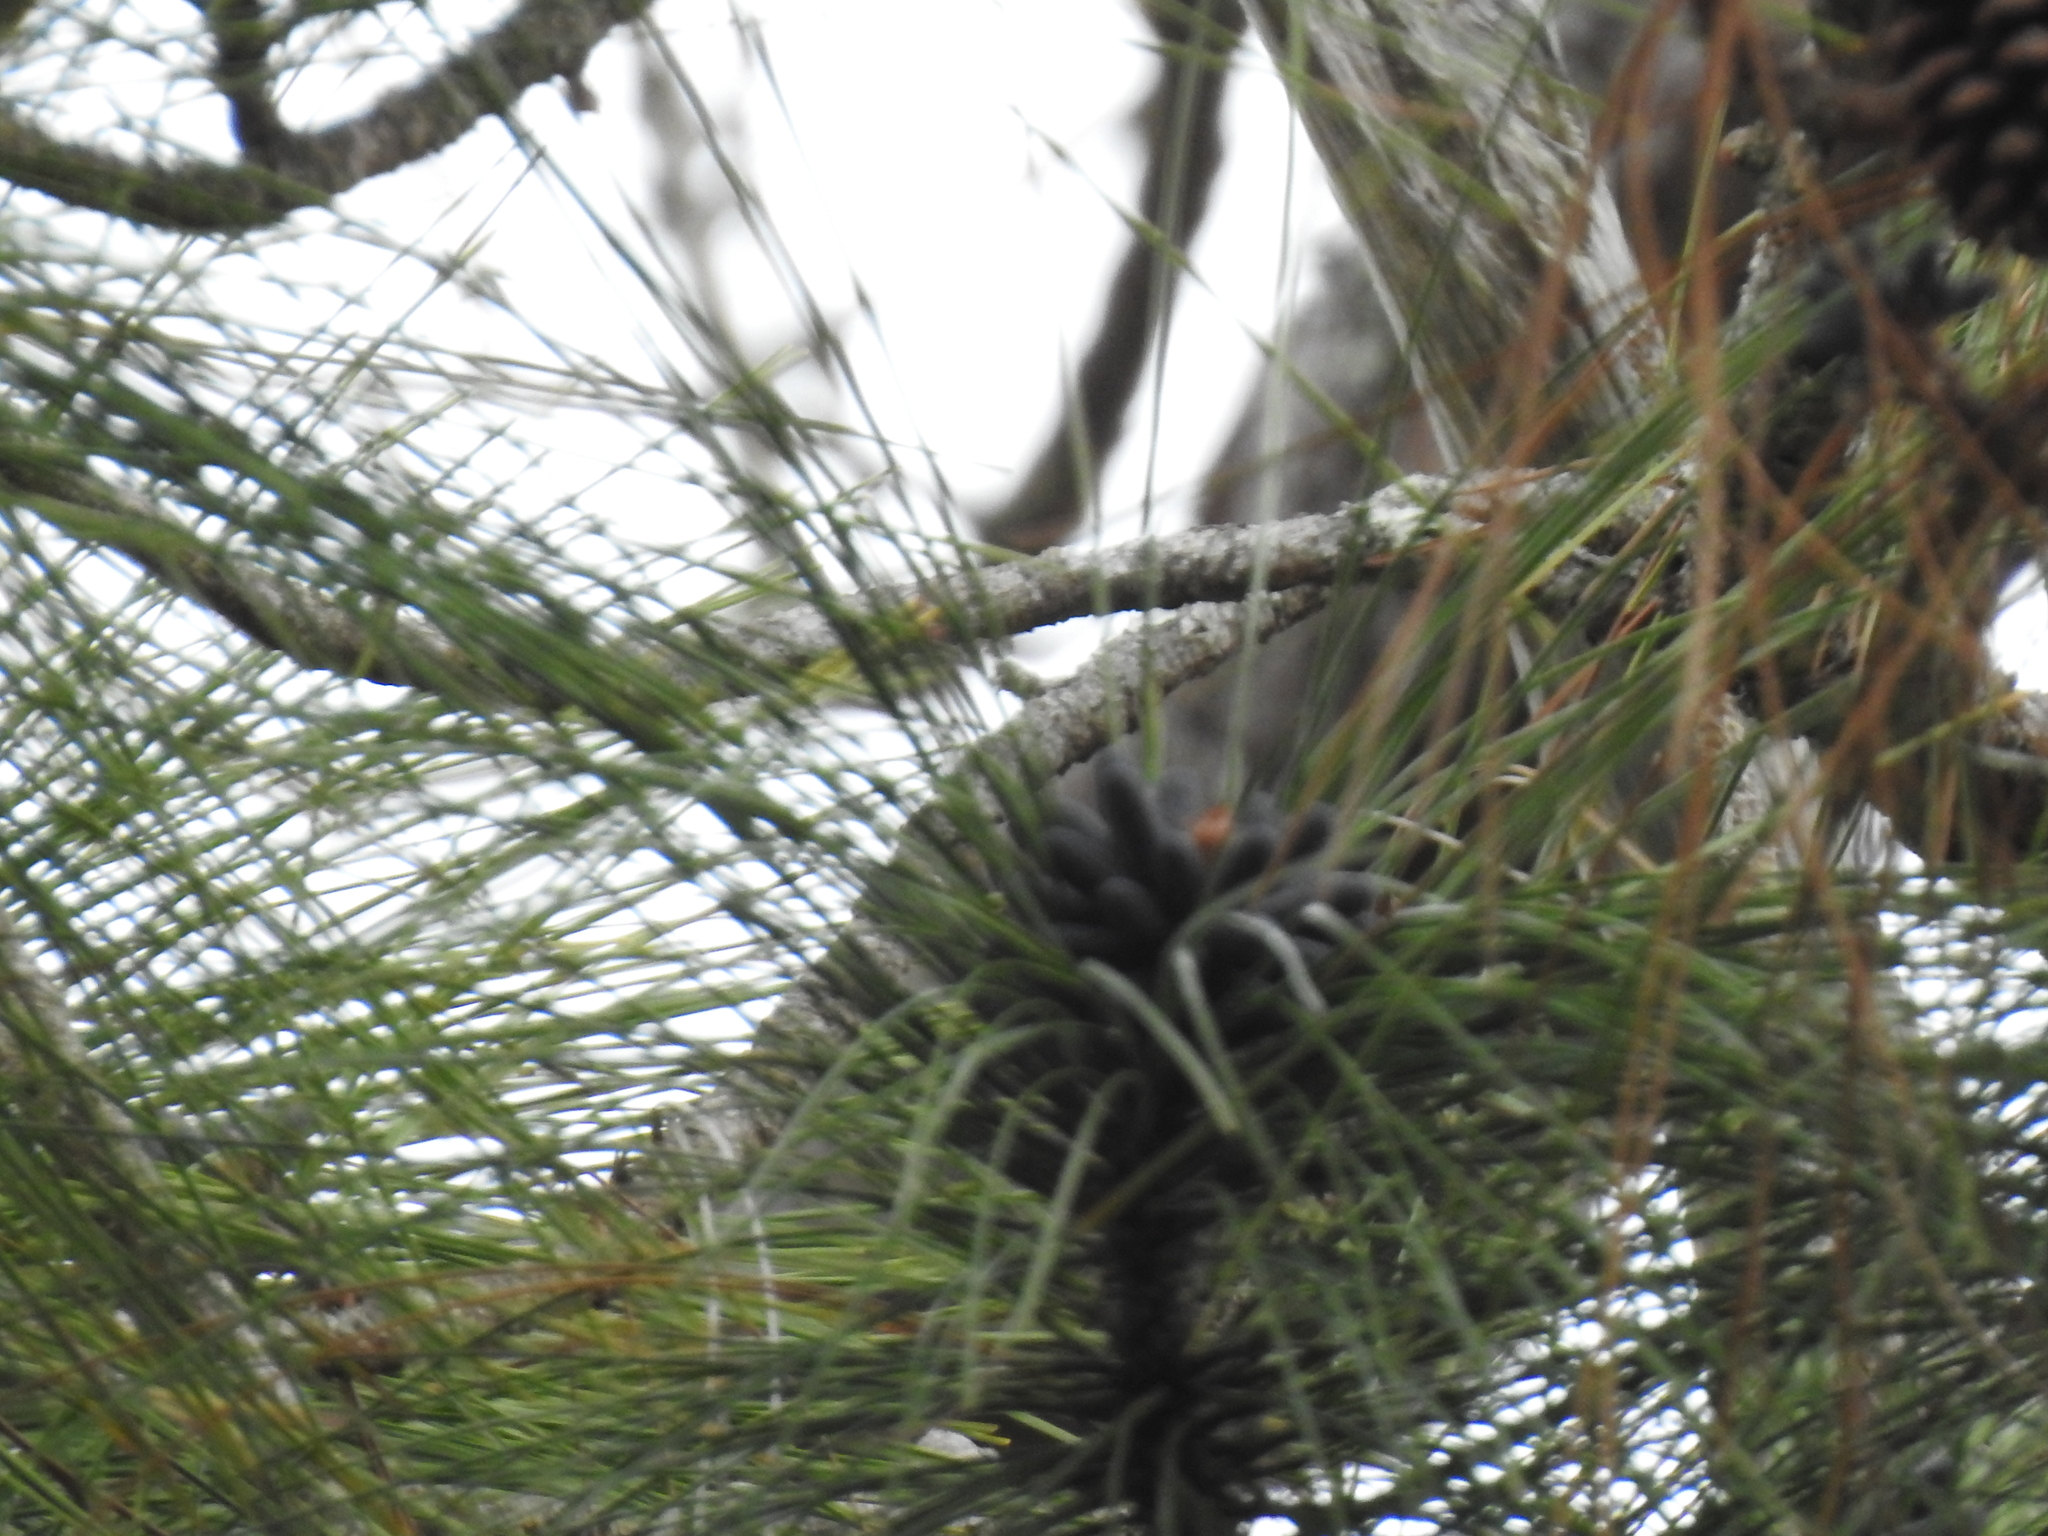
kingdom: Plantae
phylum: Tracheophyta
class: Pinopsida
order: Pinales
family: Pinaceae
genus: Pinus
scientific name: Pinus elliottii
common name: Slash pine
